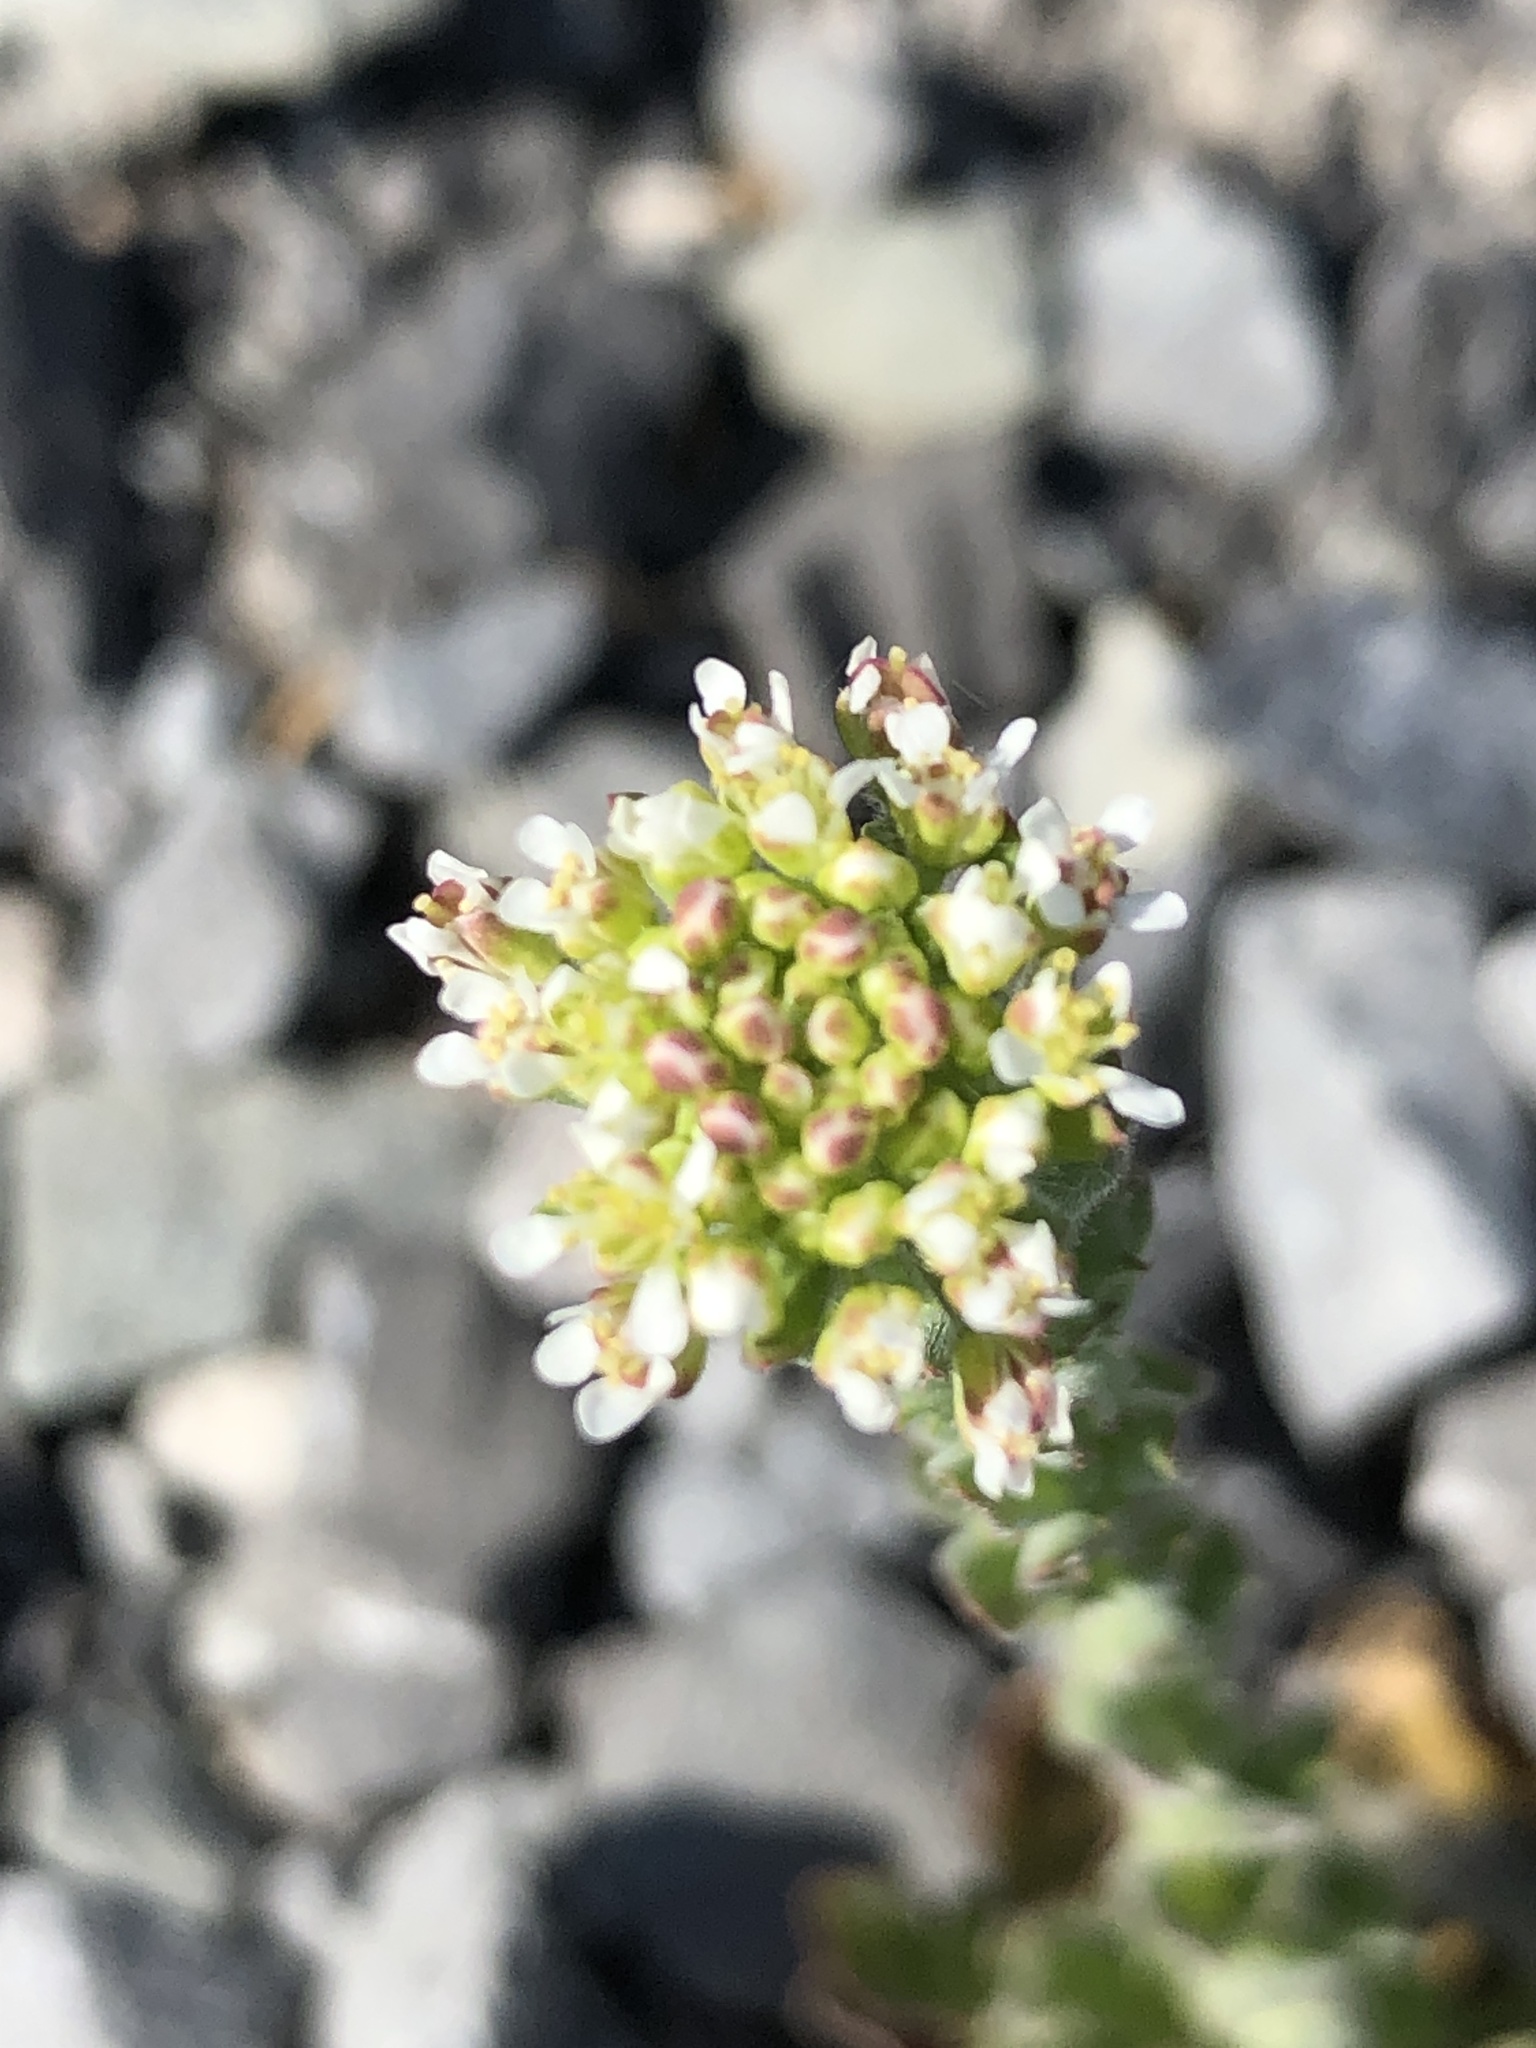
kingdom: Plantae
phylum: Tracheophyta
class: Magnoliopsida
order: Brassicales
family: Brassicaceae
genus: Lepidium
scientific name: Lepidium campestre
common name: Field pepperwort
